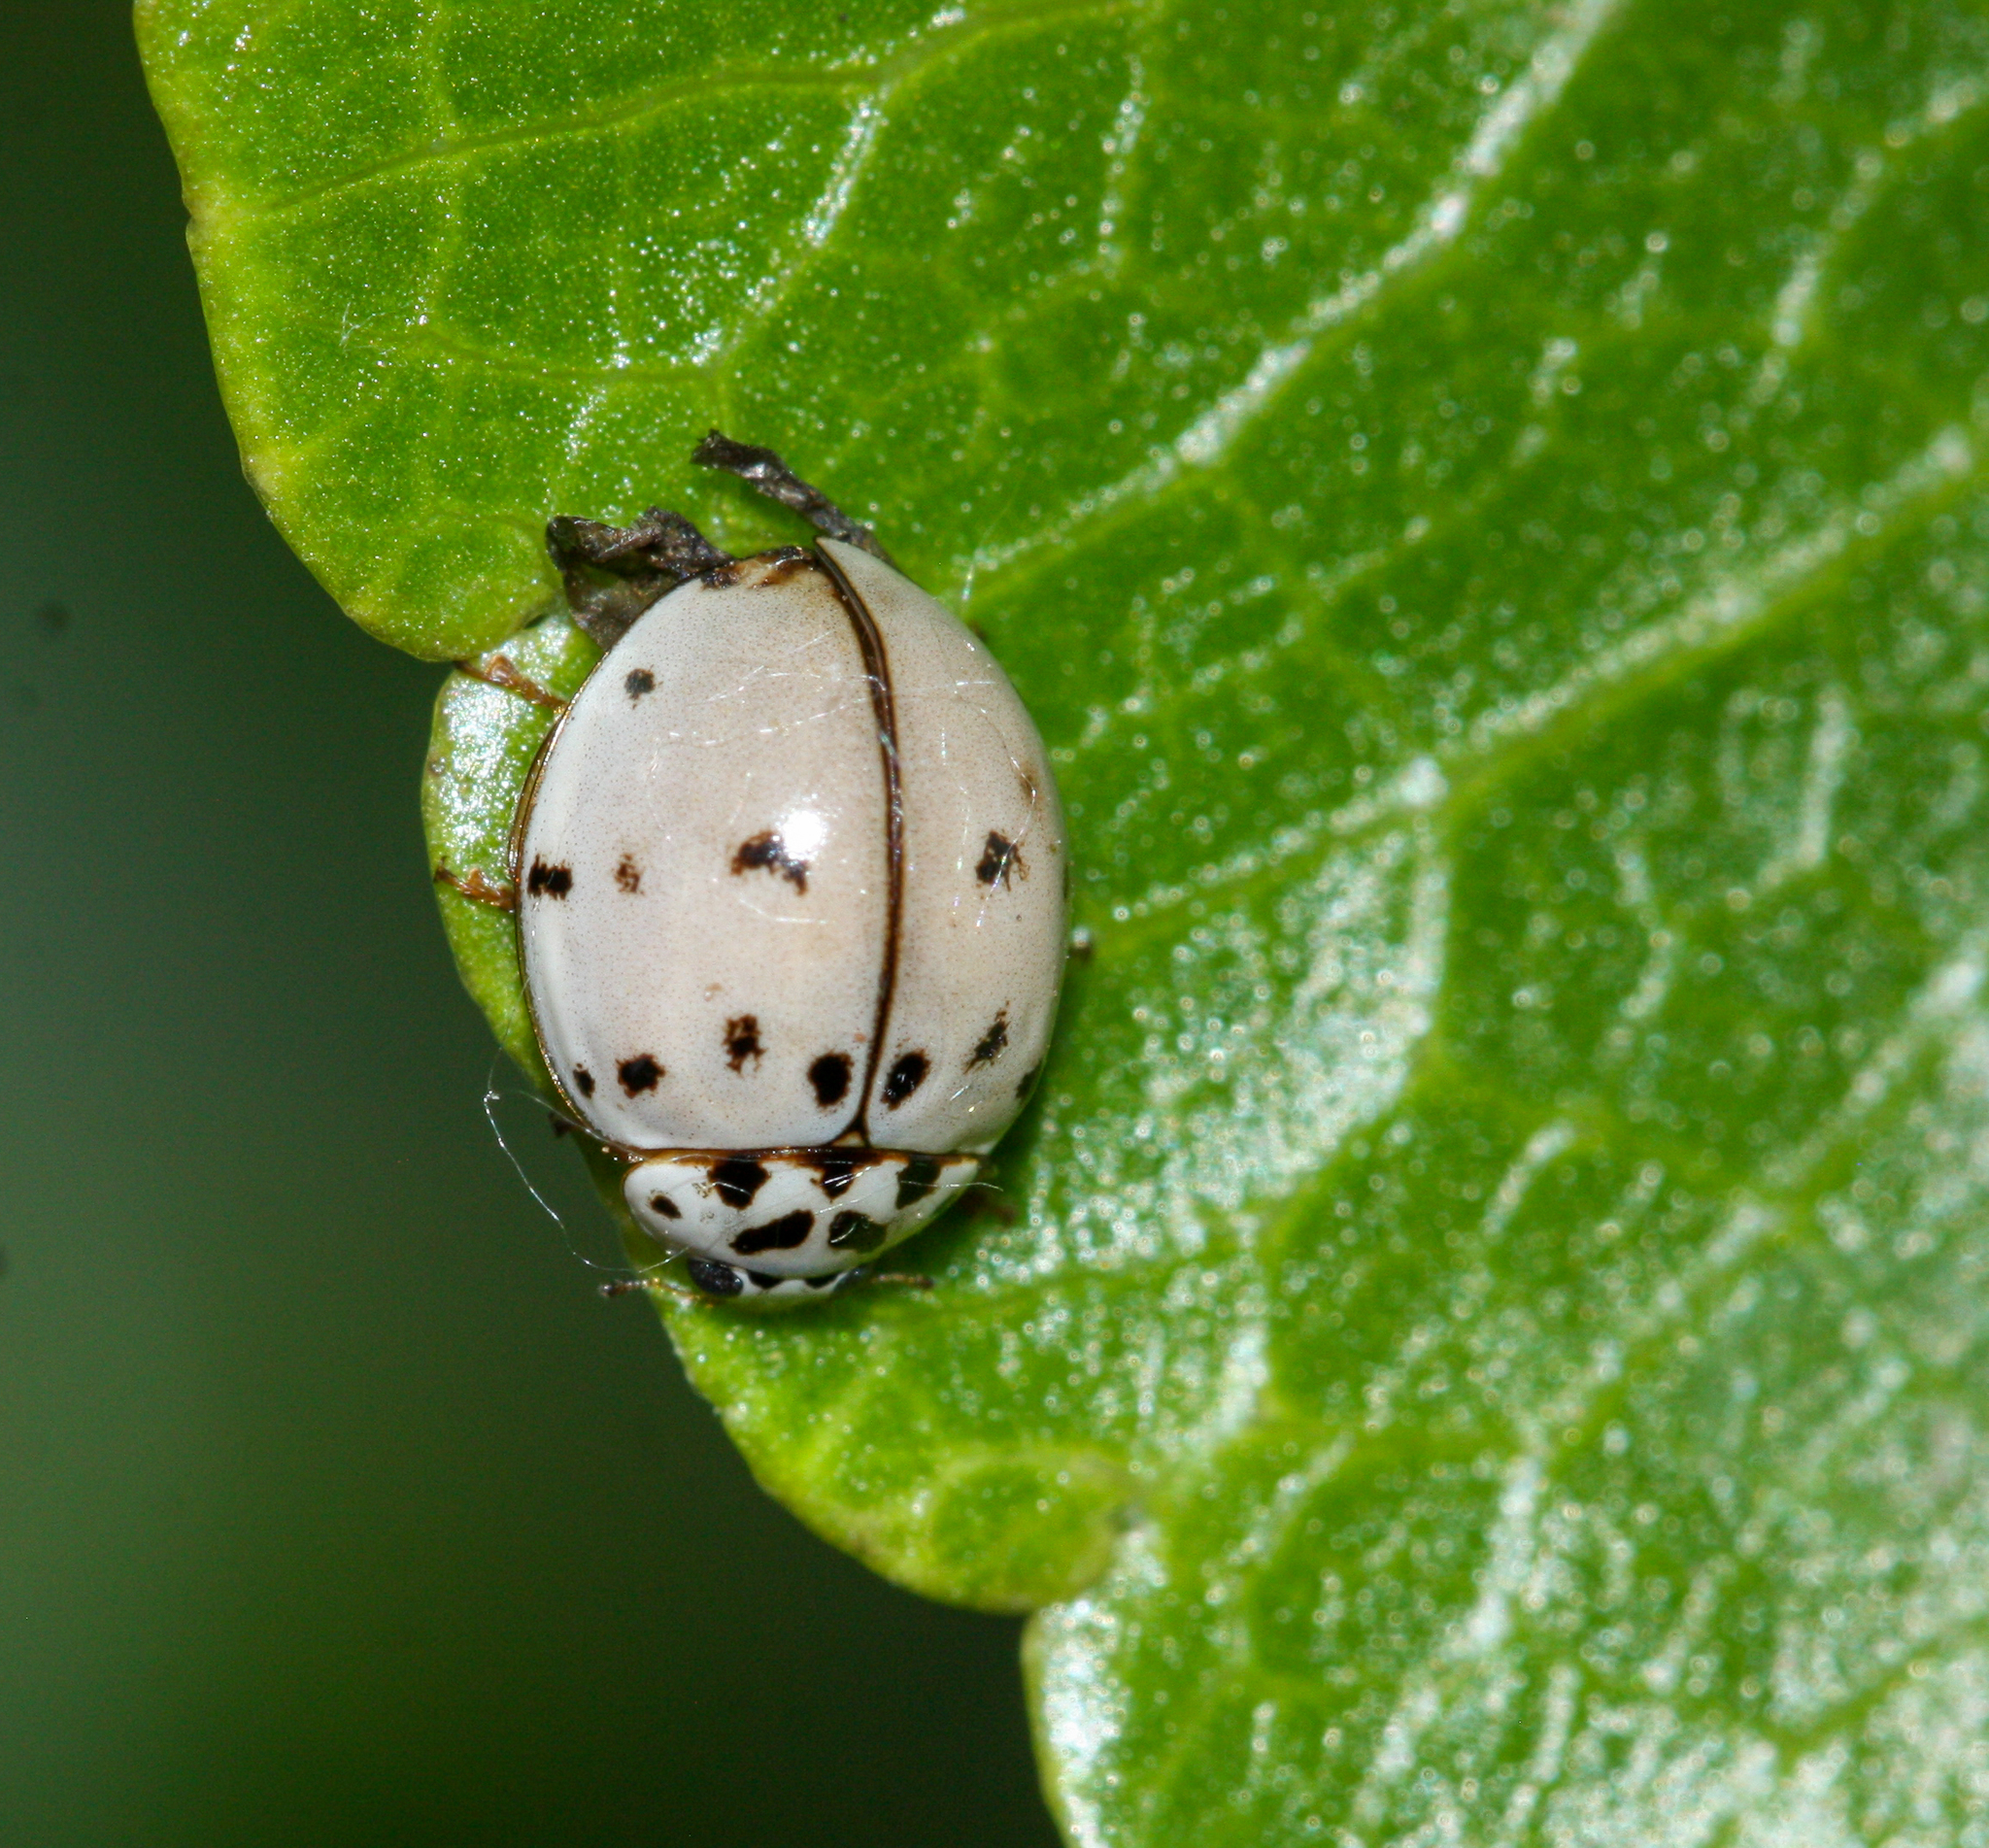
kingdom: Animalia
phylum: Arthropoda
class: Insecta
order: Coleoptera
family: Coccinellidae
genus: Olla
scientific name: Olla v-nigrum
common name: Ashy gray lady beetle
